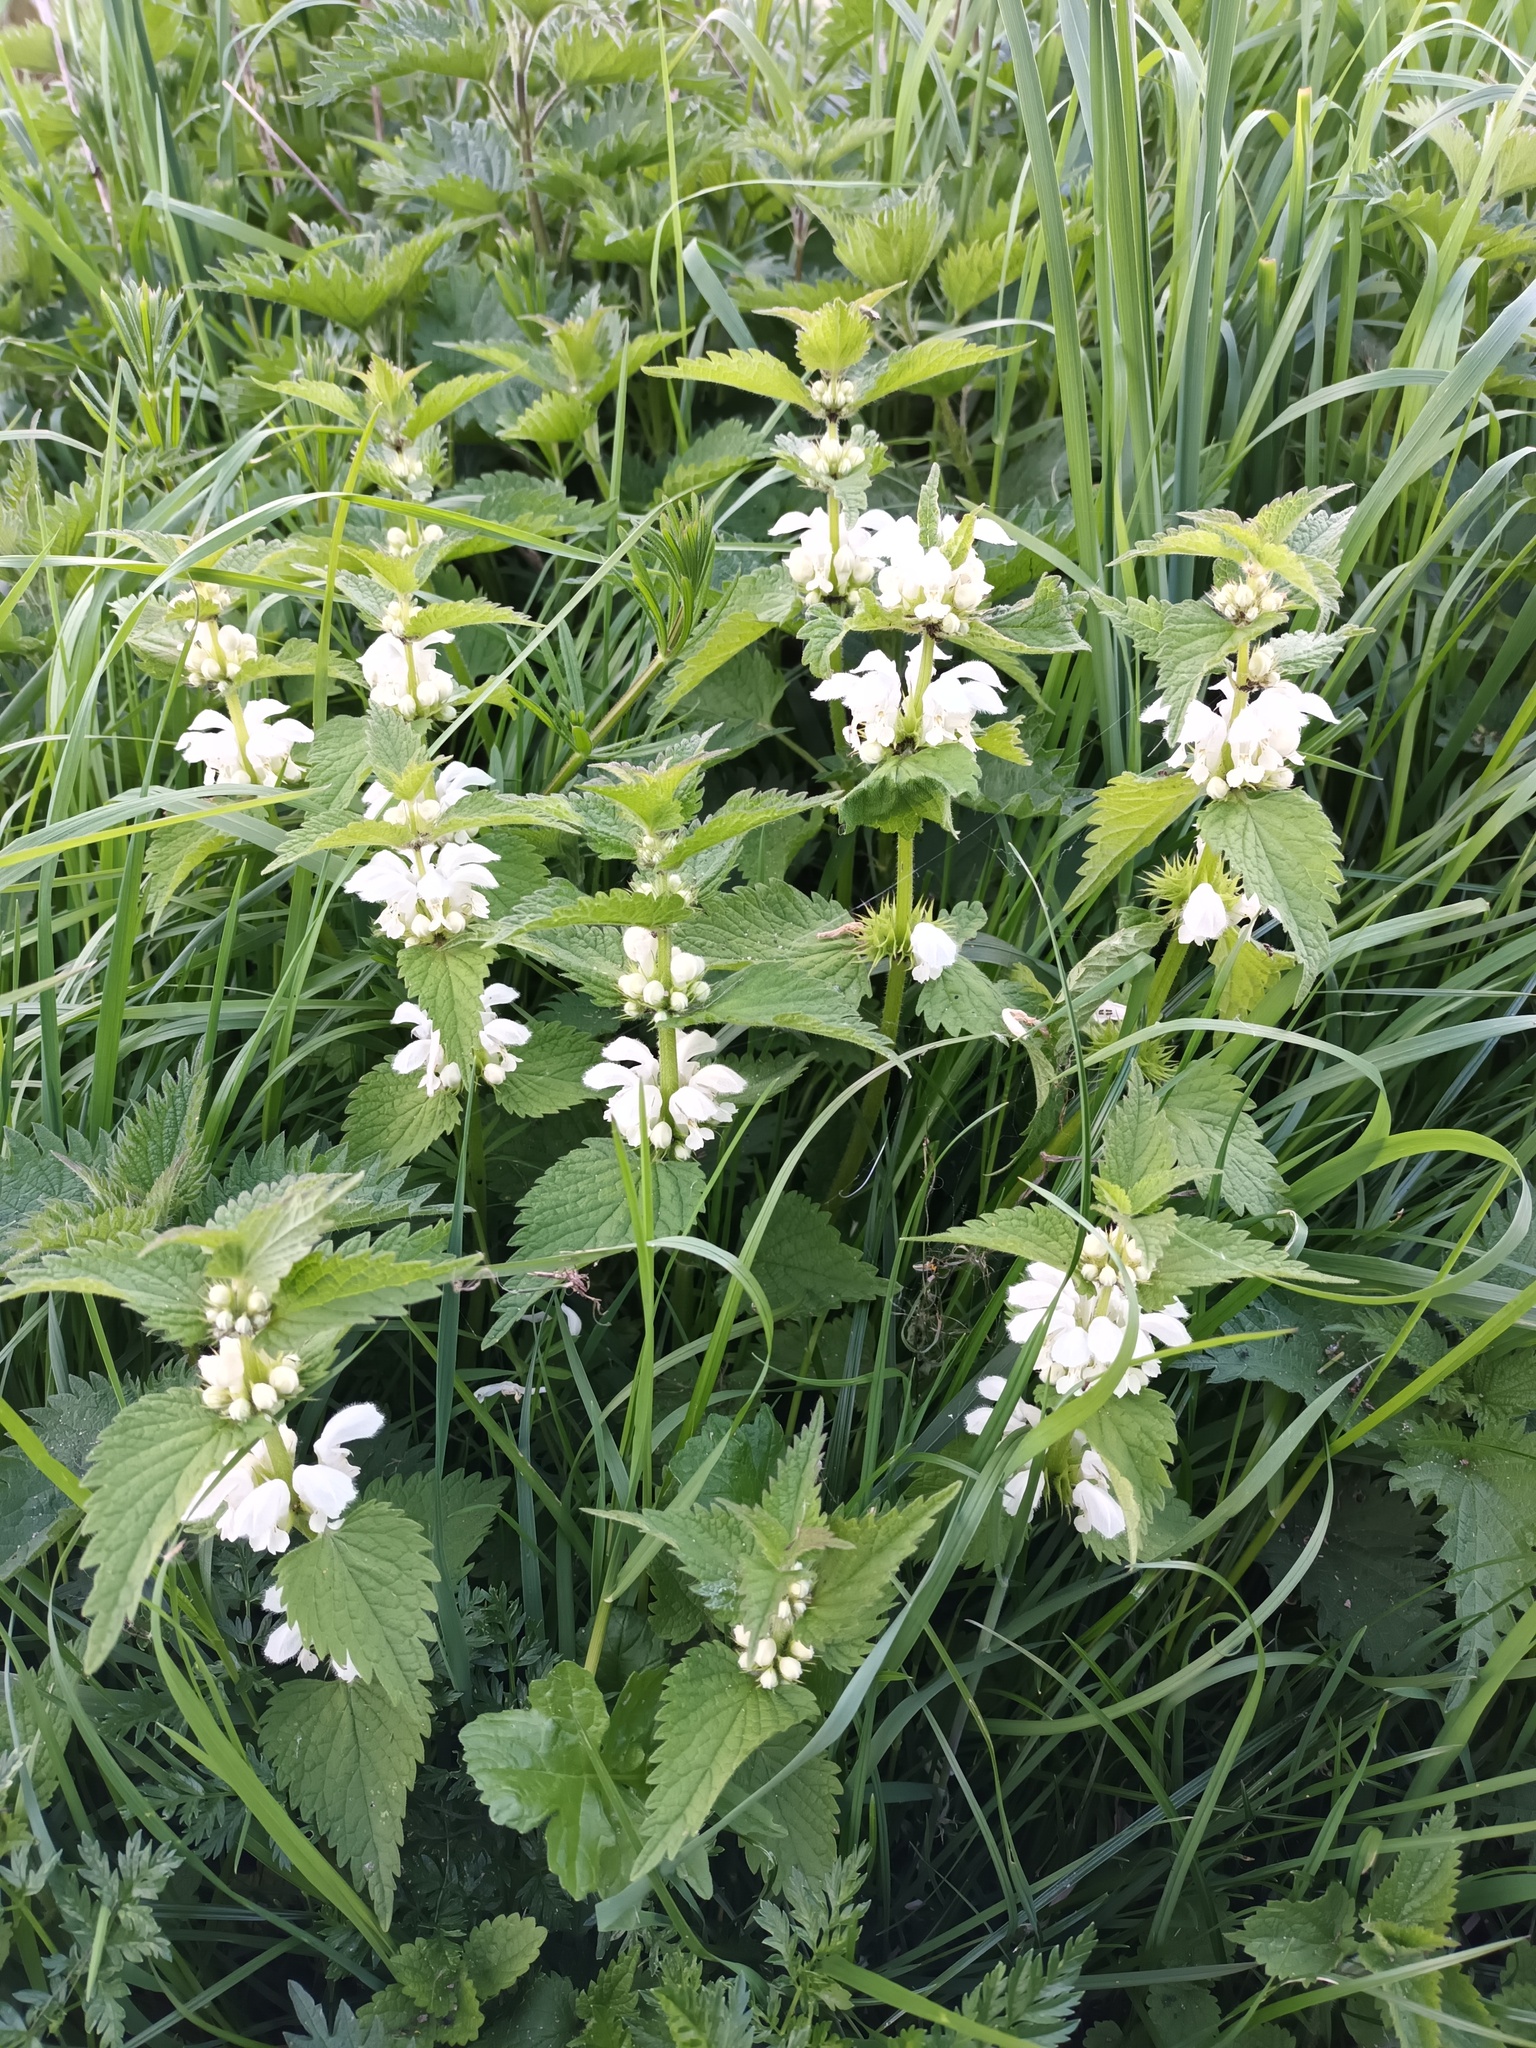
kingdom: Plantae
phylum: Tracheophyta
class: Magnoliopsida
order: Lamiales
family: Lamiaceae
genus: Lamium
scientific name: Lamium album
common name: White dead-nettle
